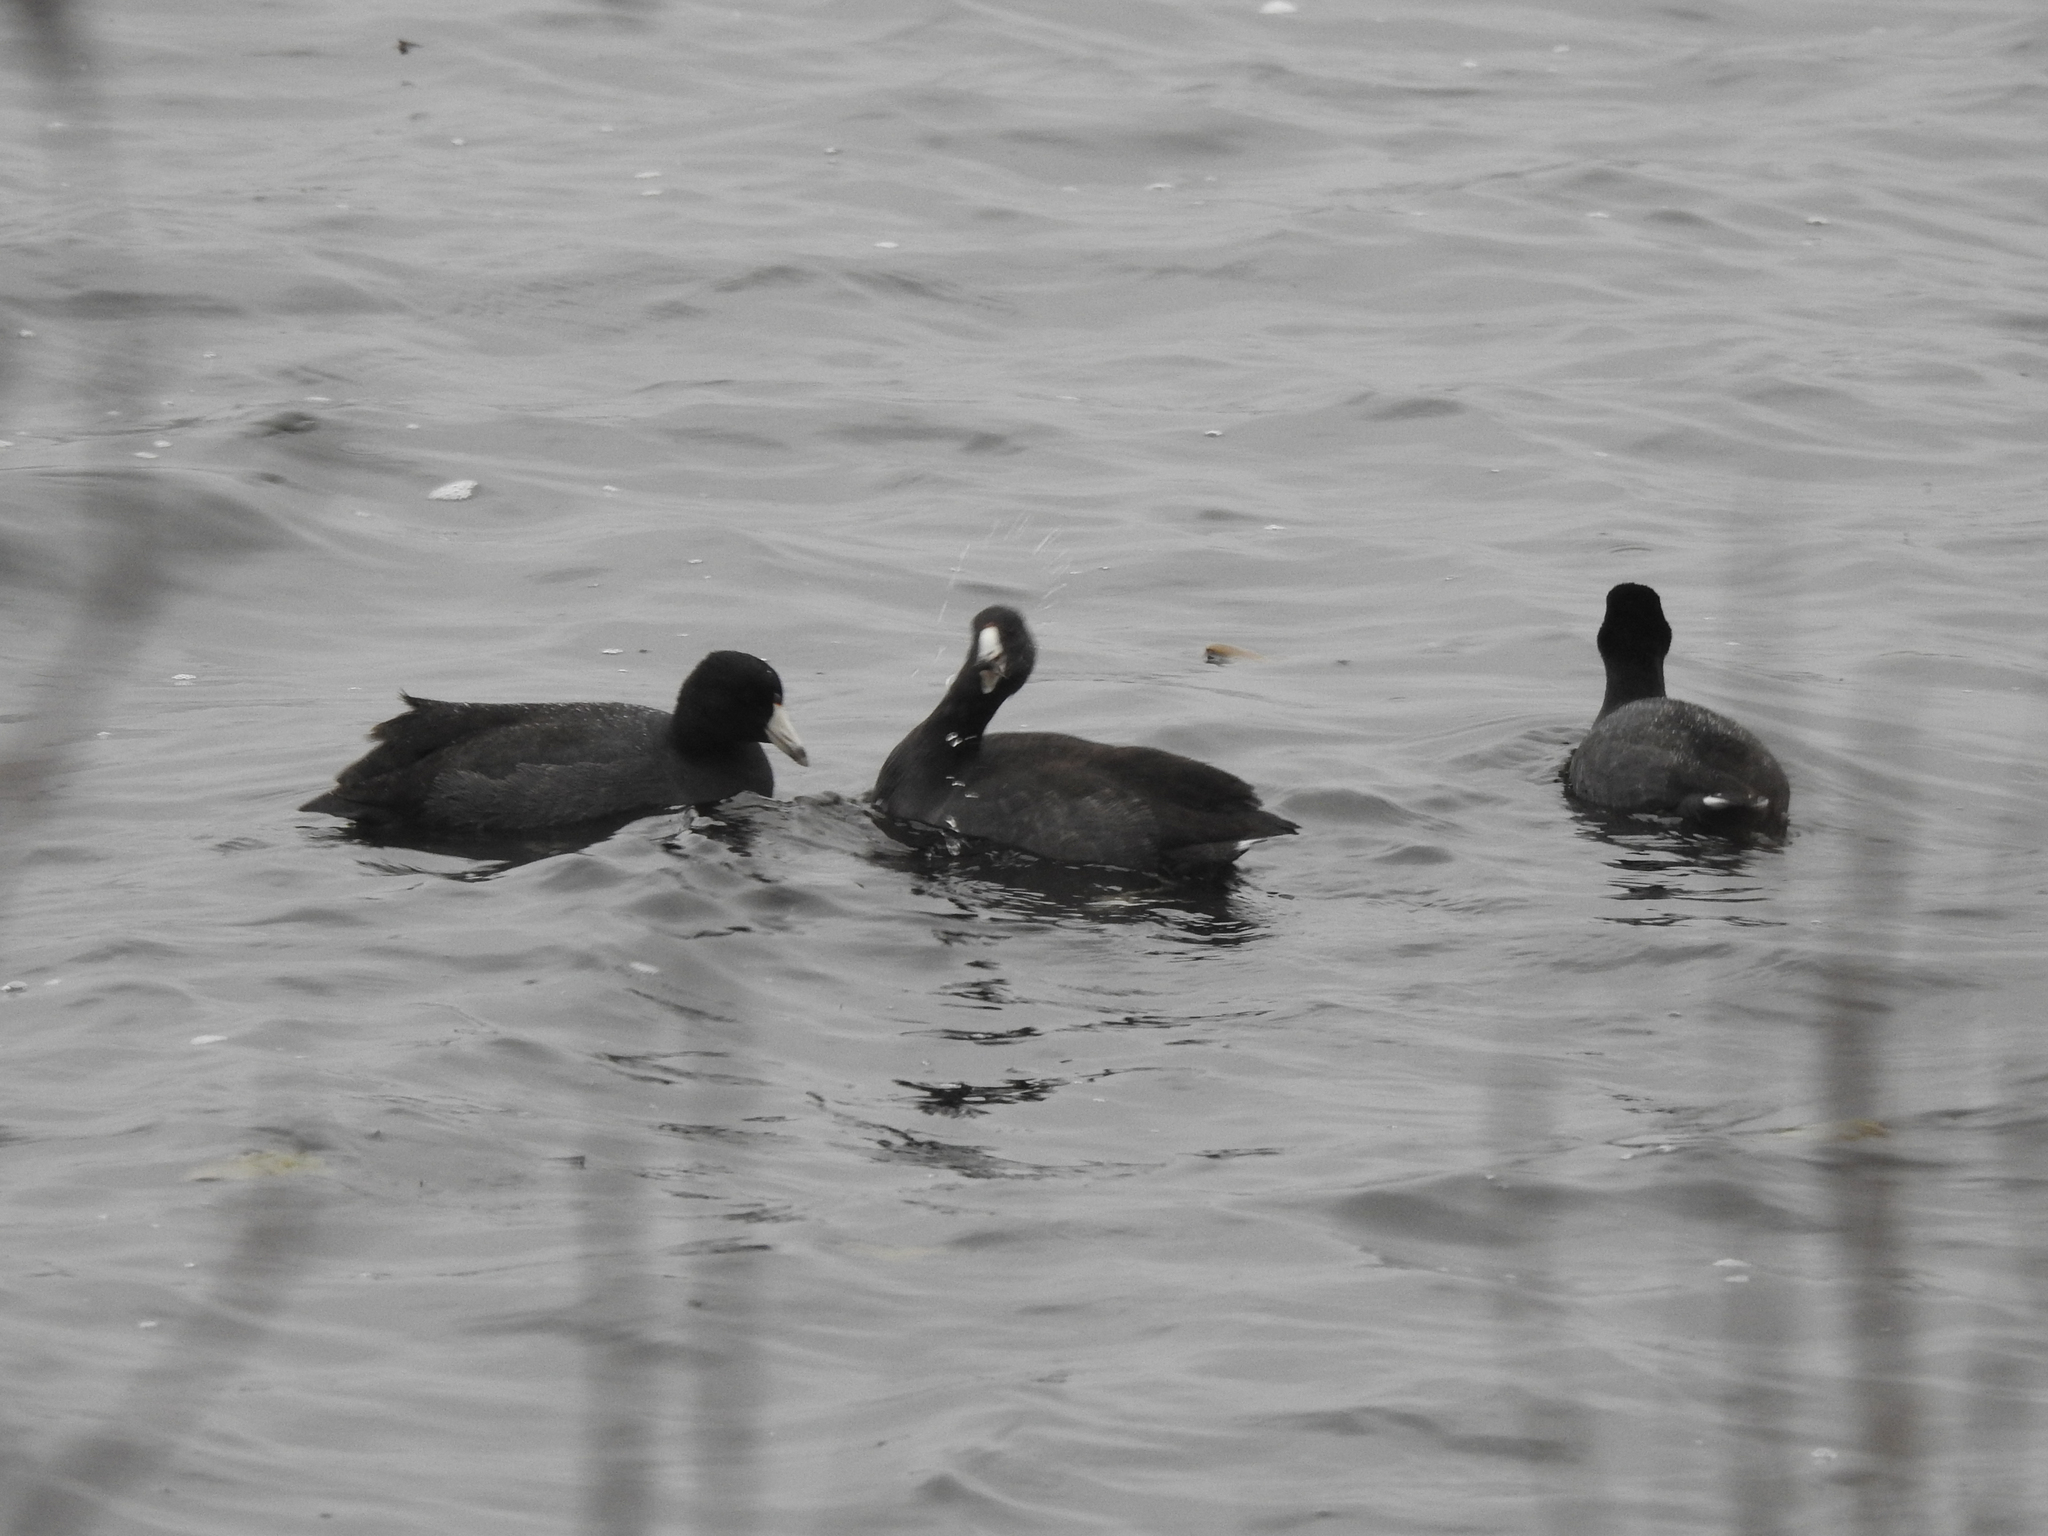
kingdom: Animalia
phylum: Chordata
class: Aves
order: Gruiformes
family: Rallidae
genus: Fulica
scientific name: Fulica americana
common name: American coot
